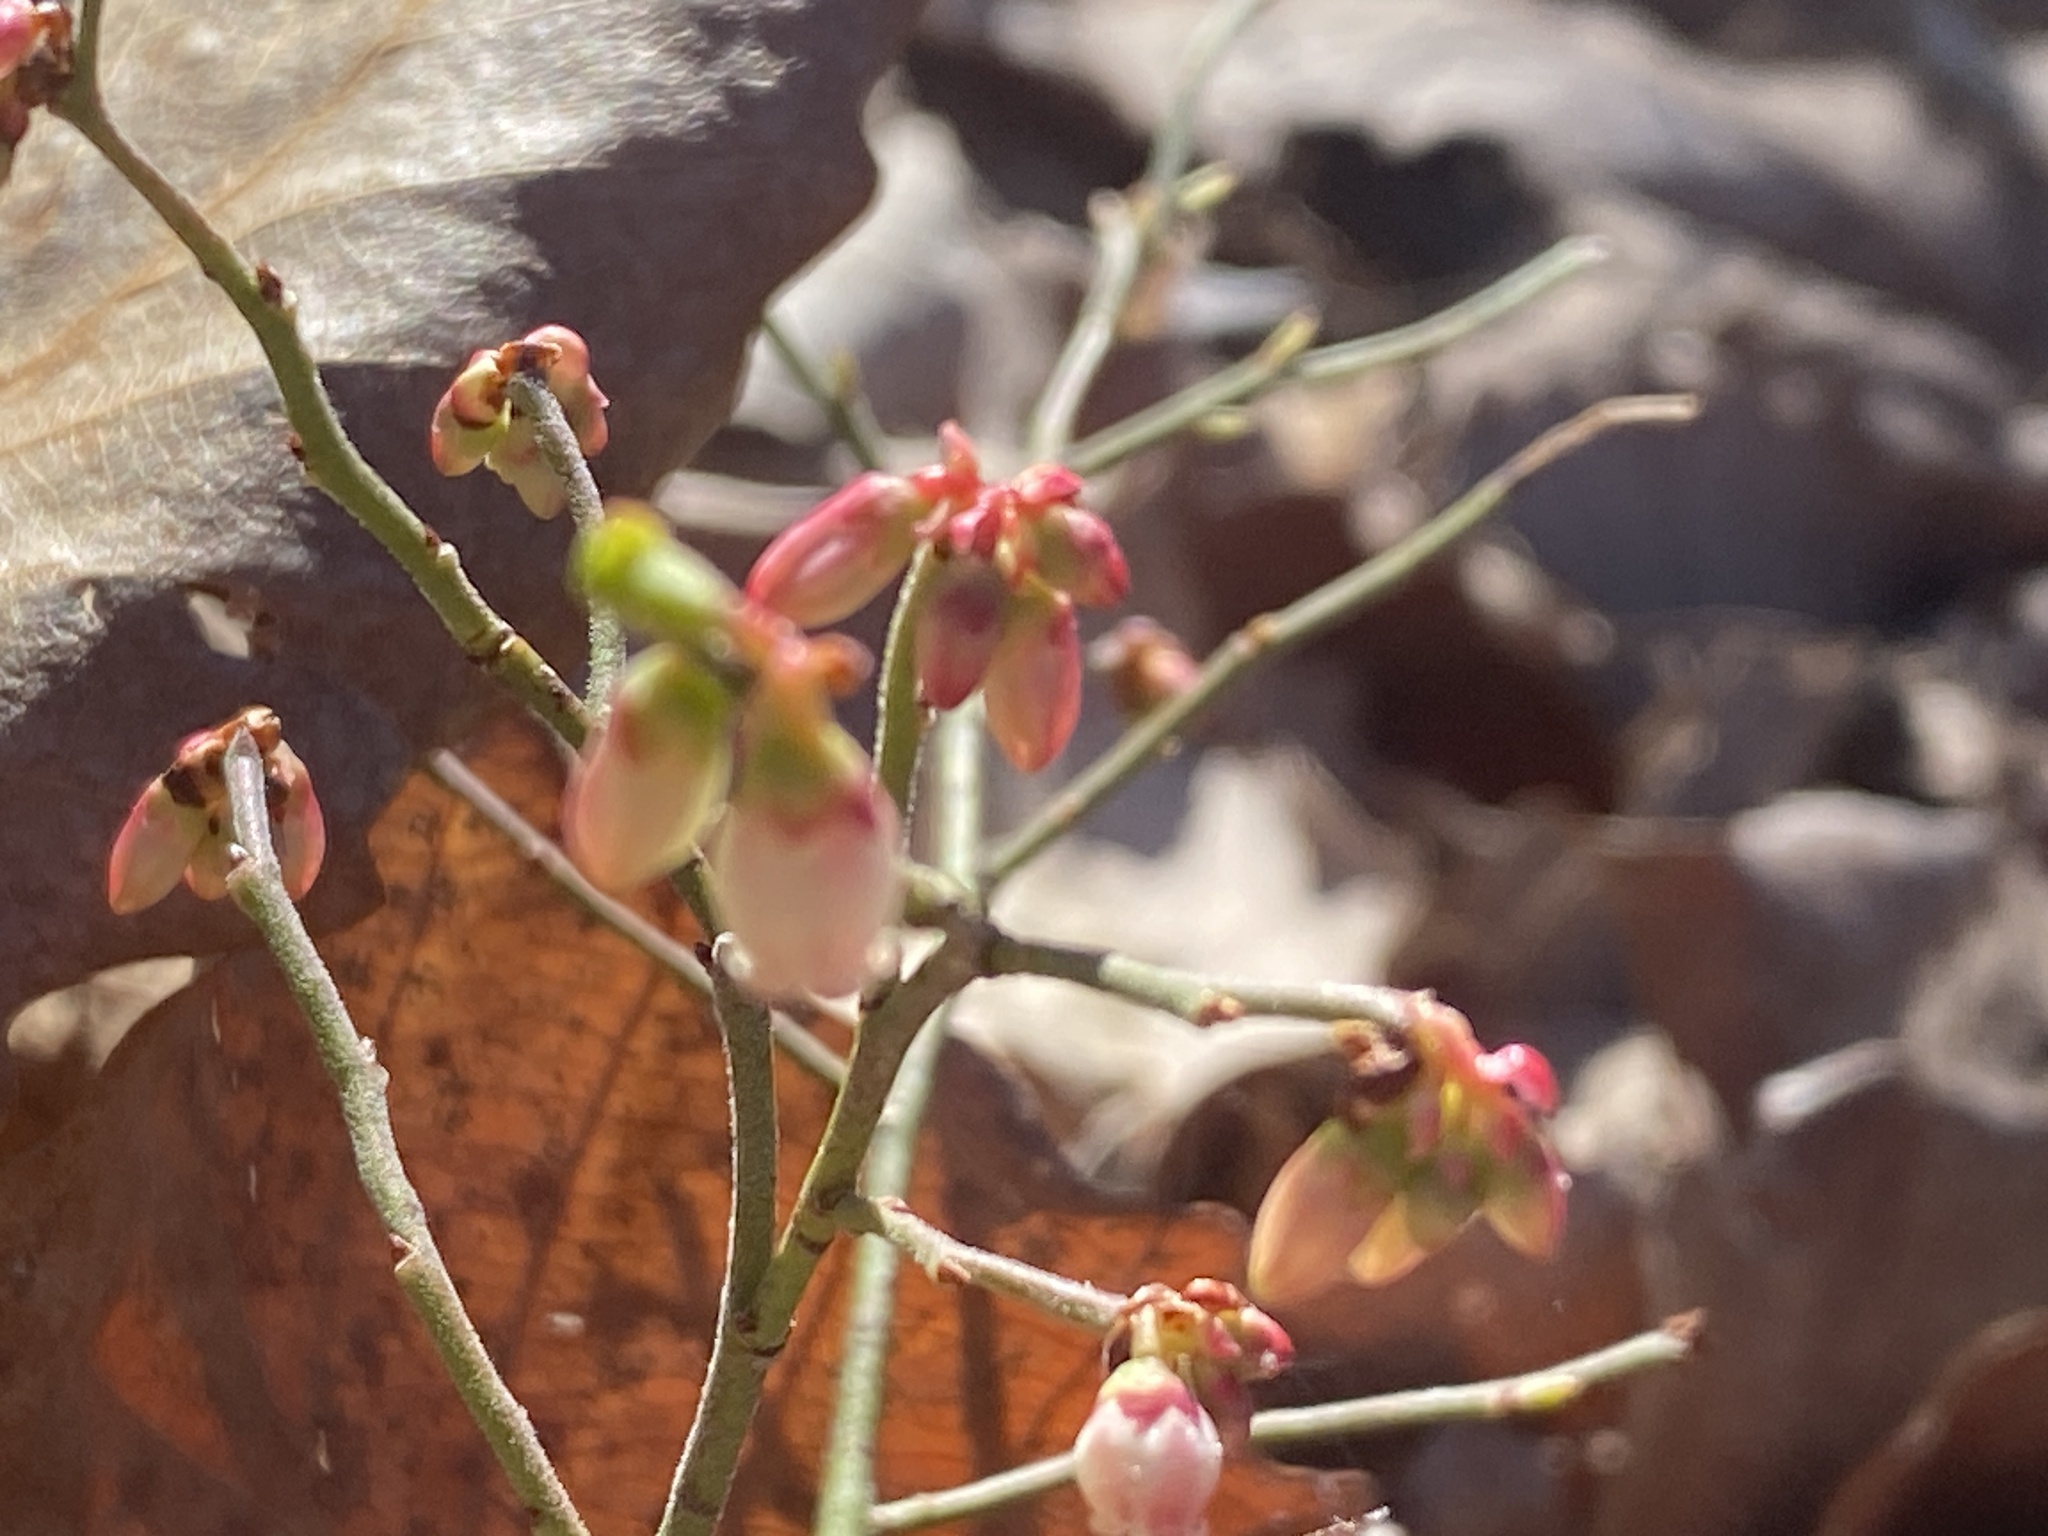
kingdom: Plantae
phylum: Tracheophyta
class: Magnoliopsida
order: Ericales
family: Ericaceae
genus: Vaccinium
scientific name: Vaccinium tenellum
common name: Southern blueberry
